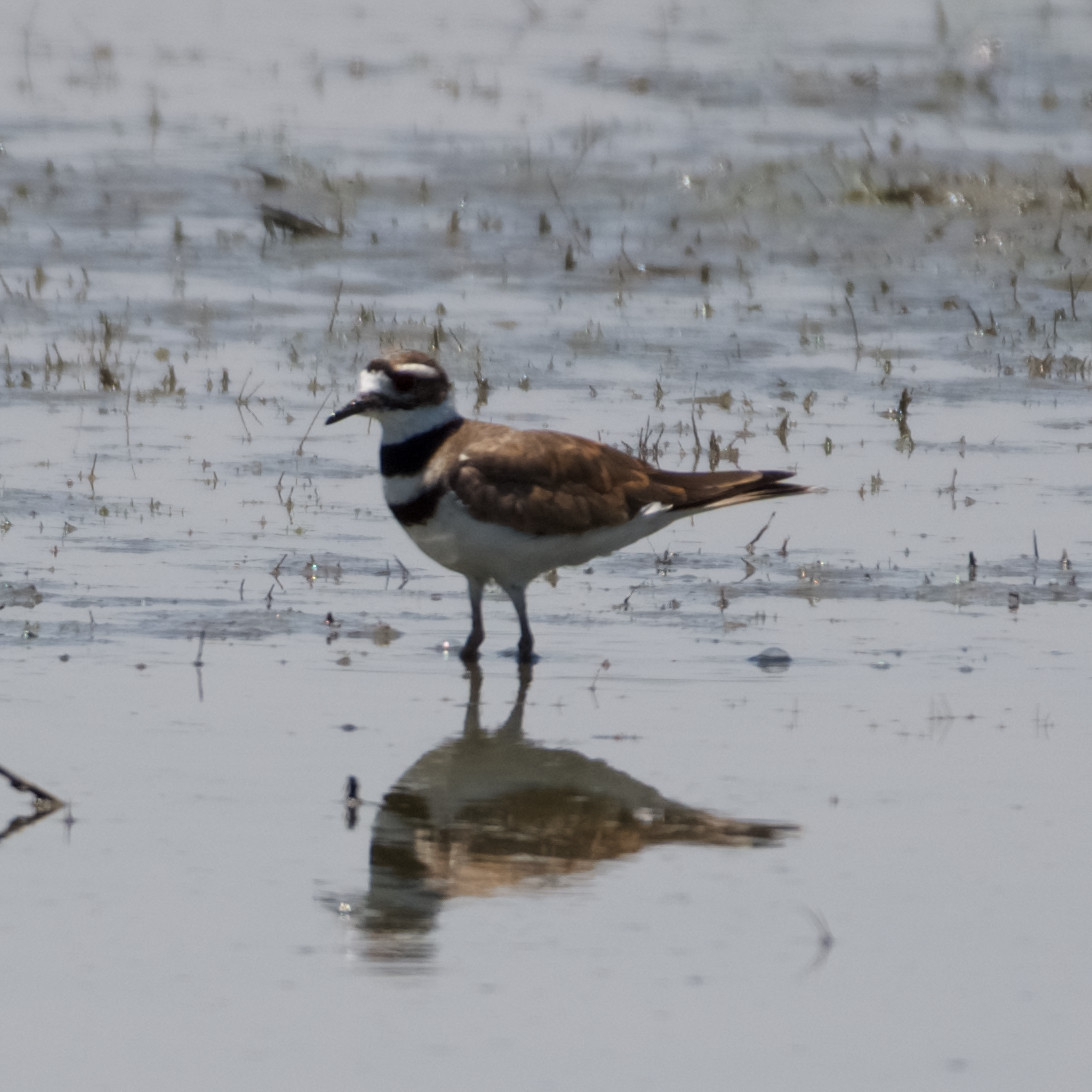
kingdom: Animalia
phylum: Chordata
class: Aves
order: Charadriiformes
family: Charadriidae
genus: Charadrius
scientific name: Charadrius vociferus
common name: Killdeer
